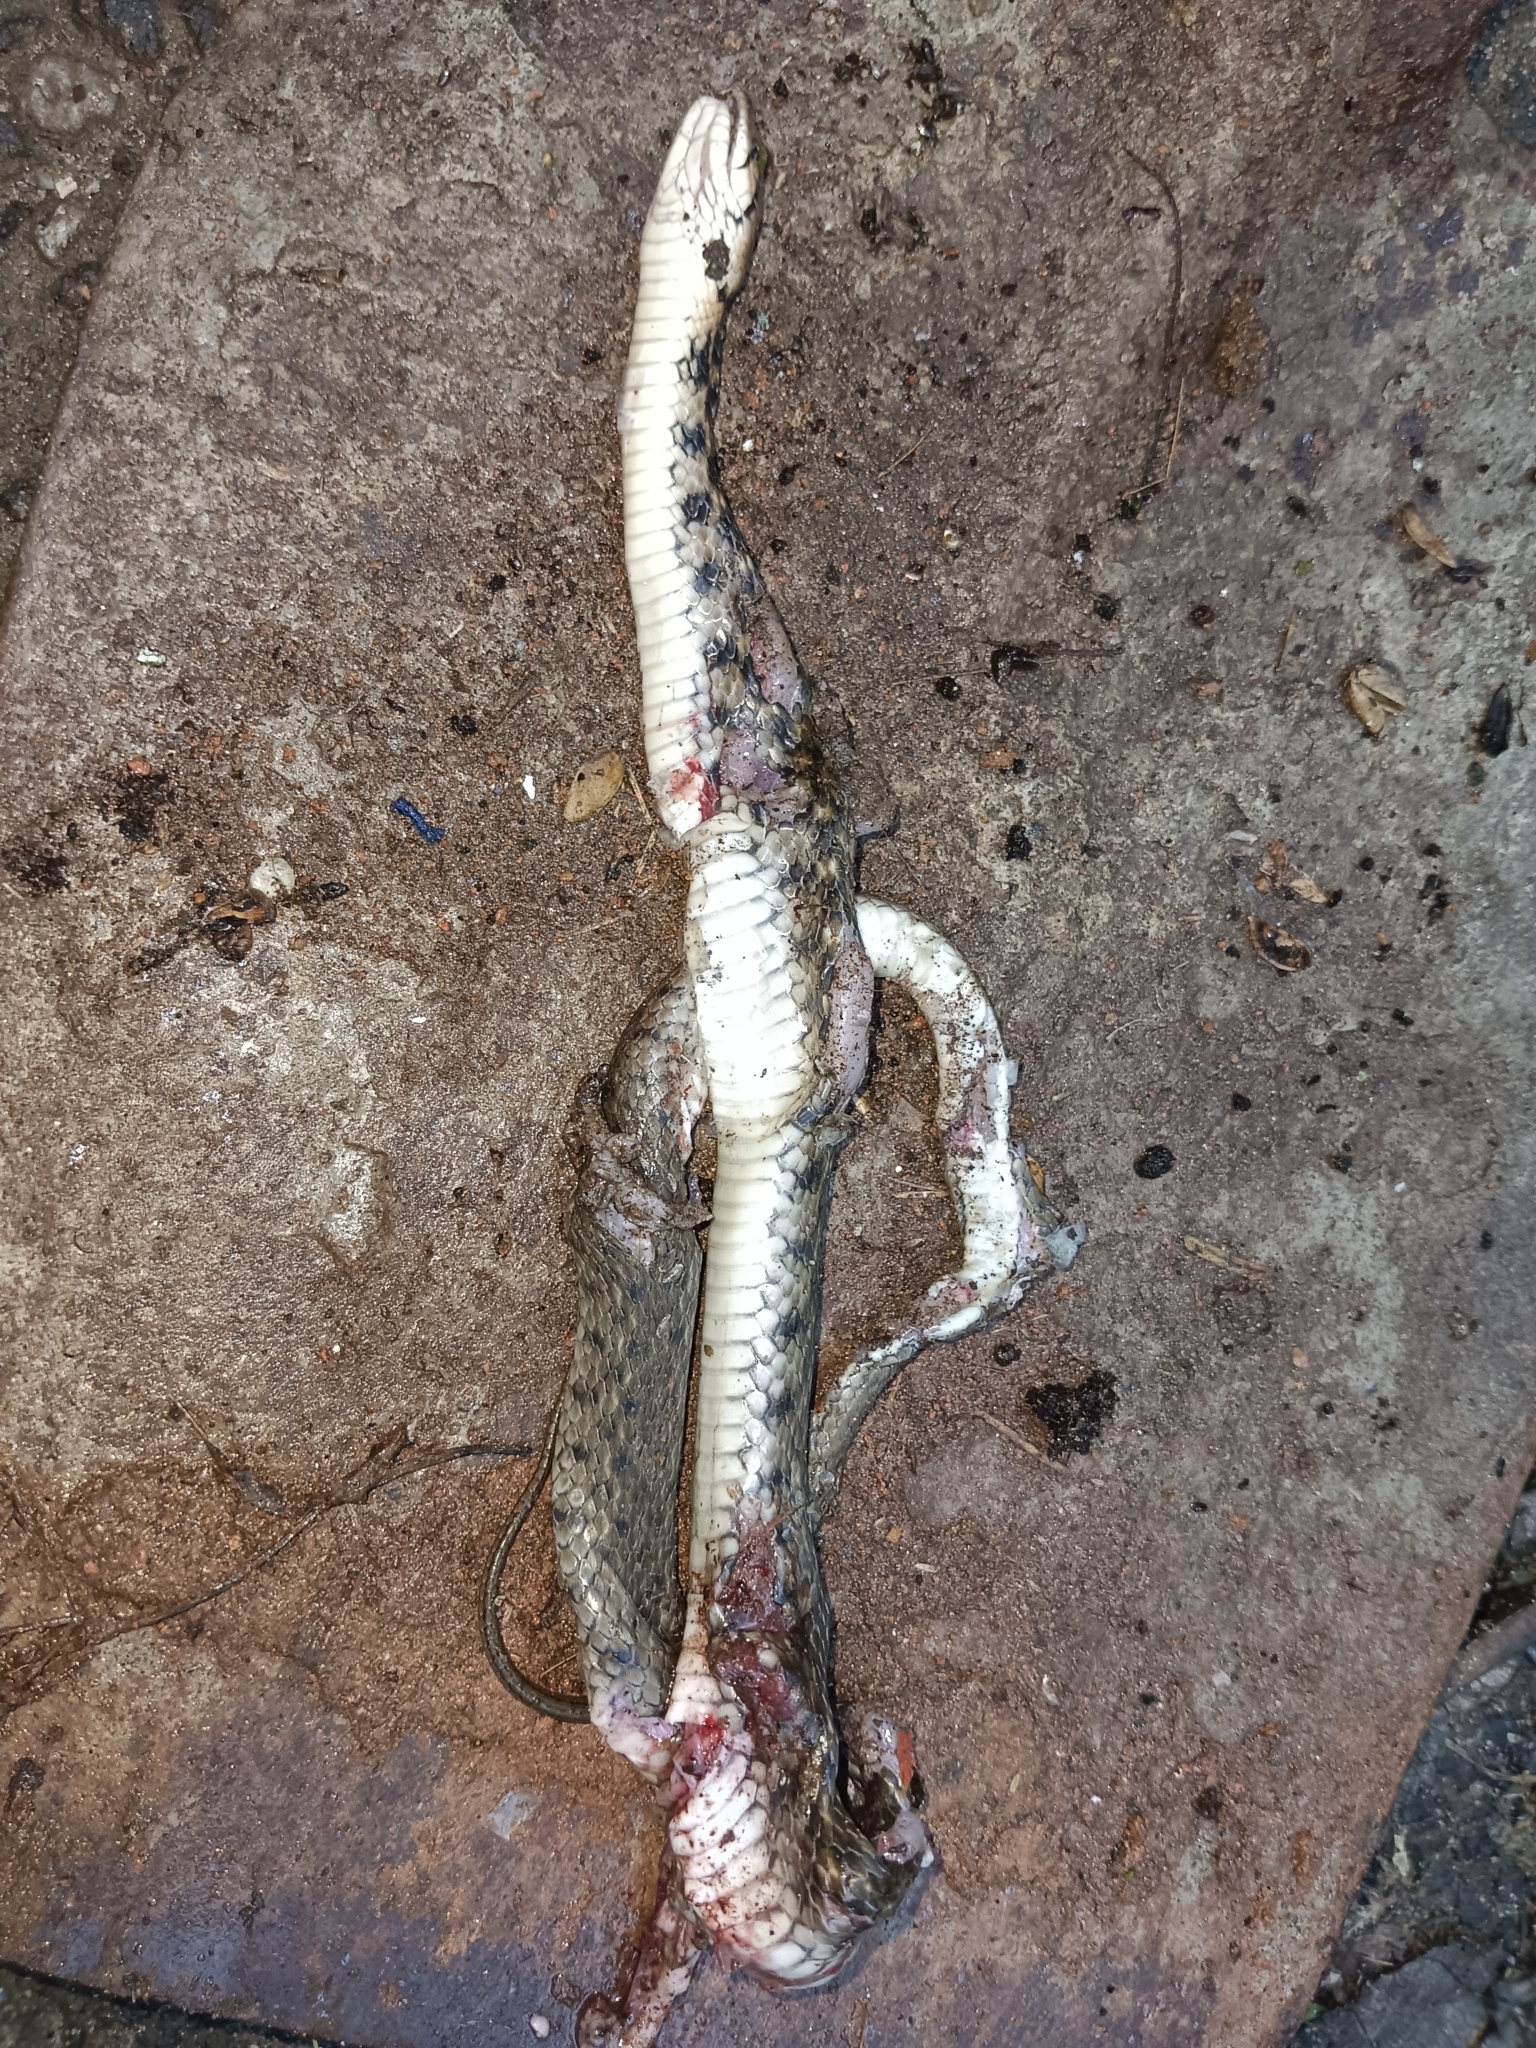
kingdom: Animalia
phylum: Chordata
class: Squamata
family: Colubridae
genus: Fowlea
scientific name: Fowlea piscator
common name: Asiatic water snake
